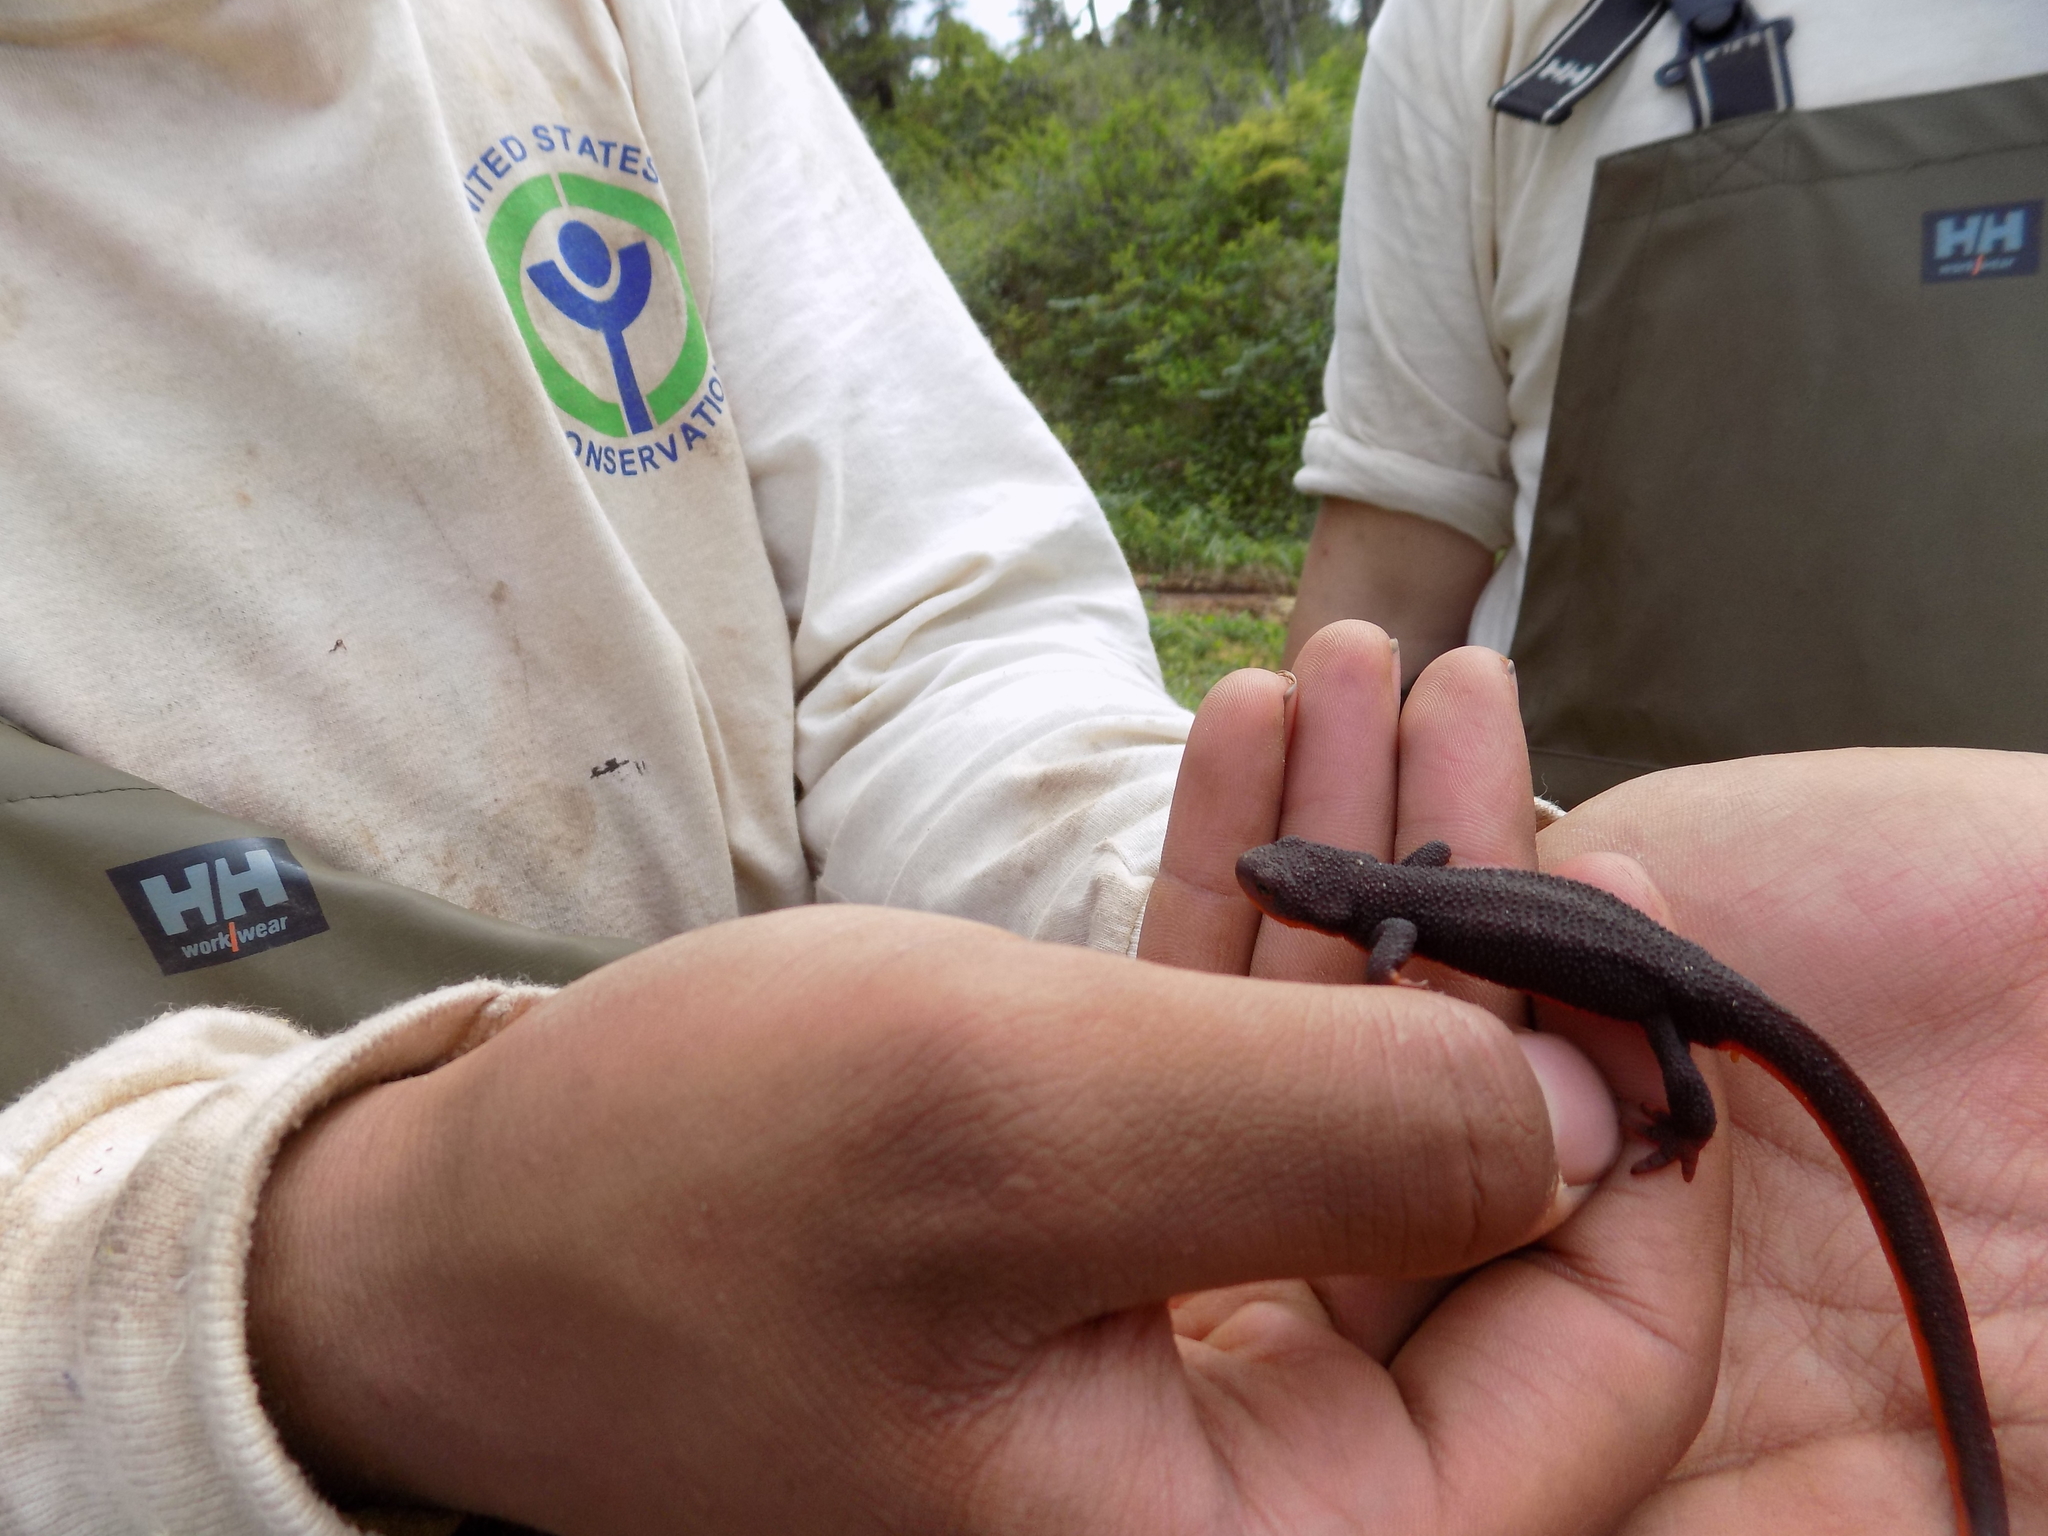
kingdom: Animalia
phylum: Chordata
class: Amphibia
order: Caudata
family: Salamandridae
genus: Taricha
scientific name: Taricha granulosa
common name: Roughskin newt
